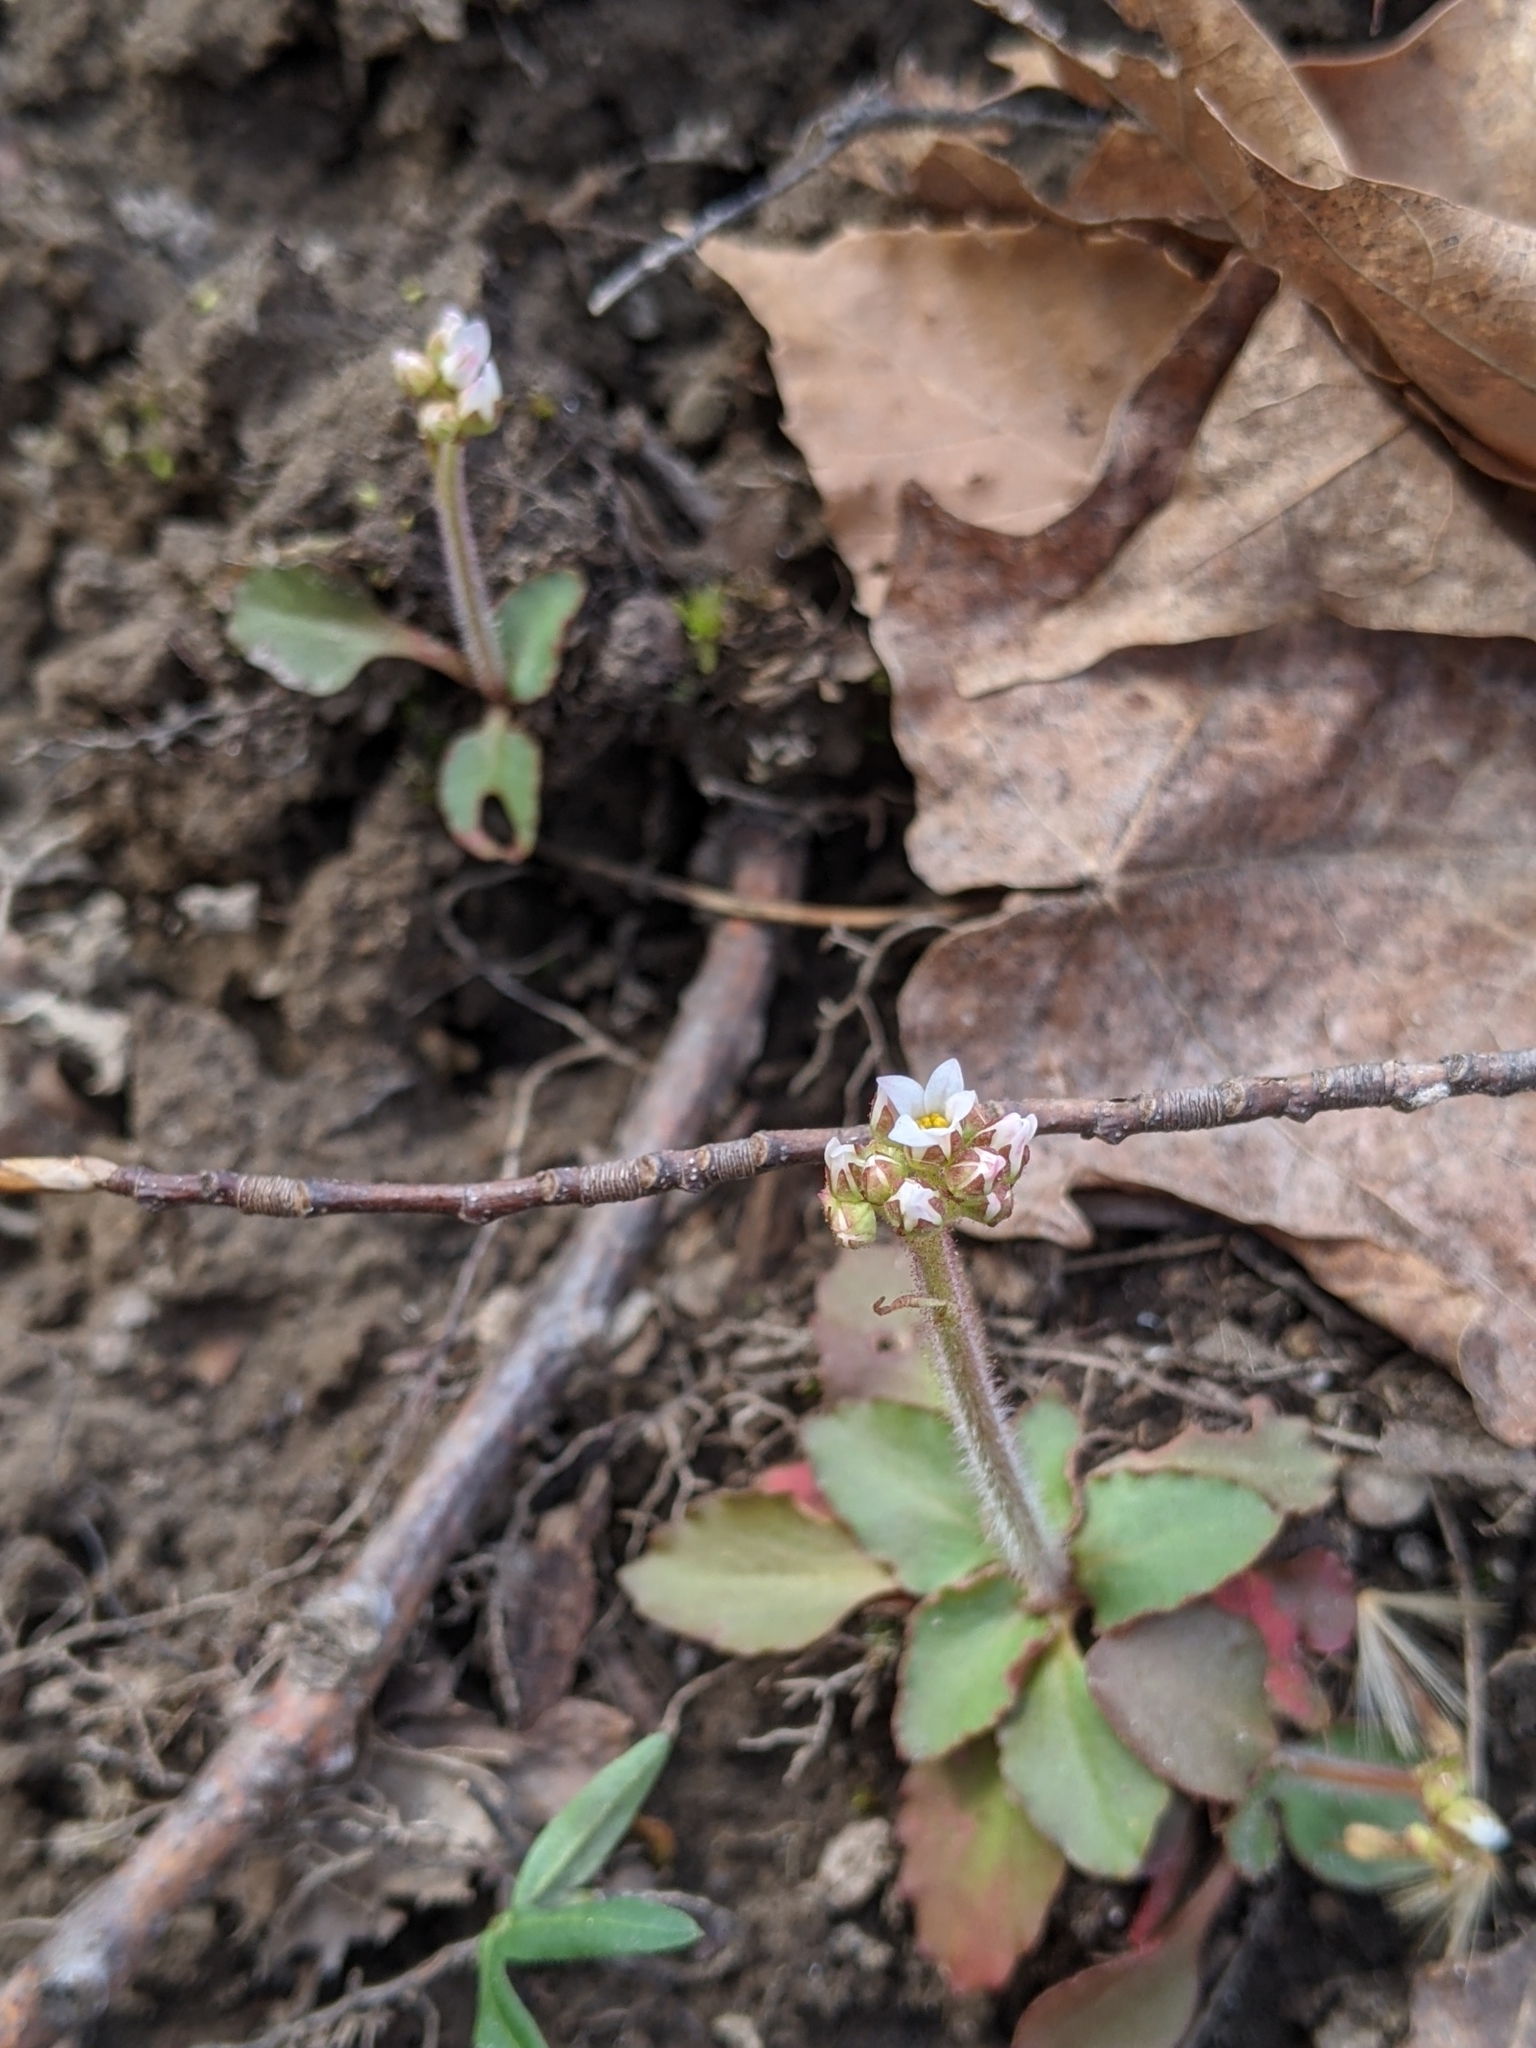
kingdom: Plantae
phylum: Tracheophyta
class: Magnoliopsida
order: Saxifragales
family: Saxifragaceae
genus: Micranthes
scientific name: Micranthes virginiensis
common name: Early saxifrage
